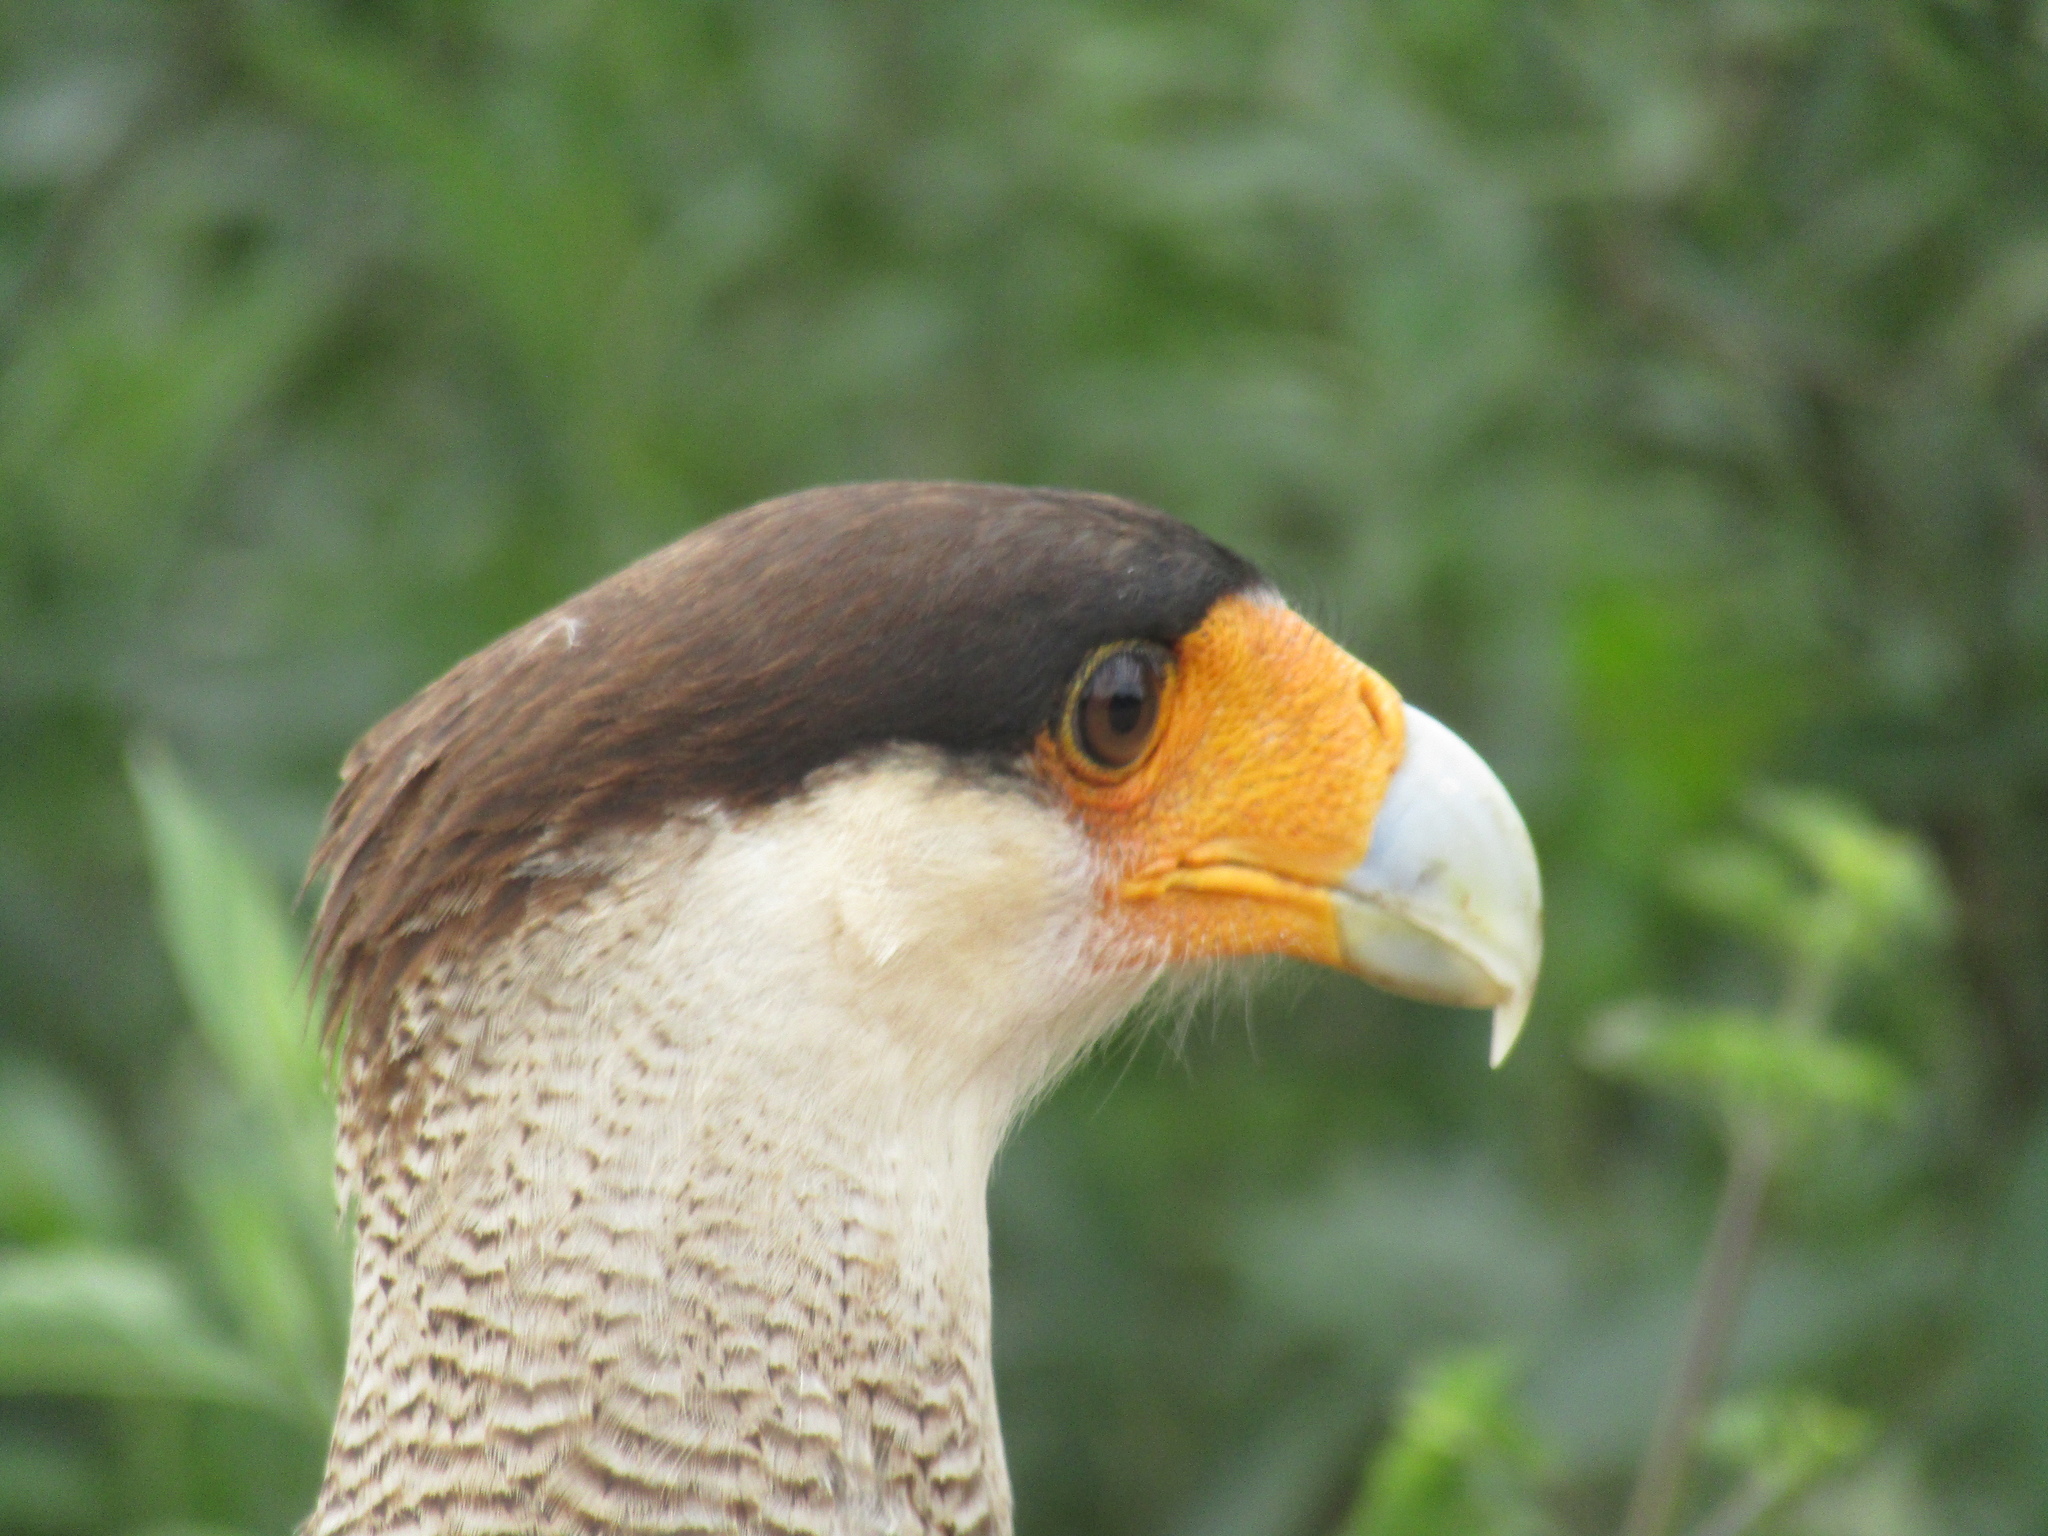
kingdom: Animalia
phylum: Chordata
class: Aves
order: Falconiformes
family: Falconidae
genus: Caracara
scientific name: Caracara plancus
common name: Southern caracara
